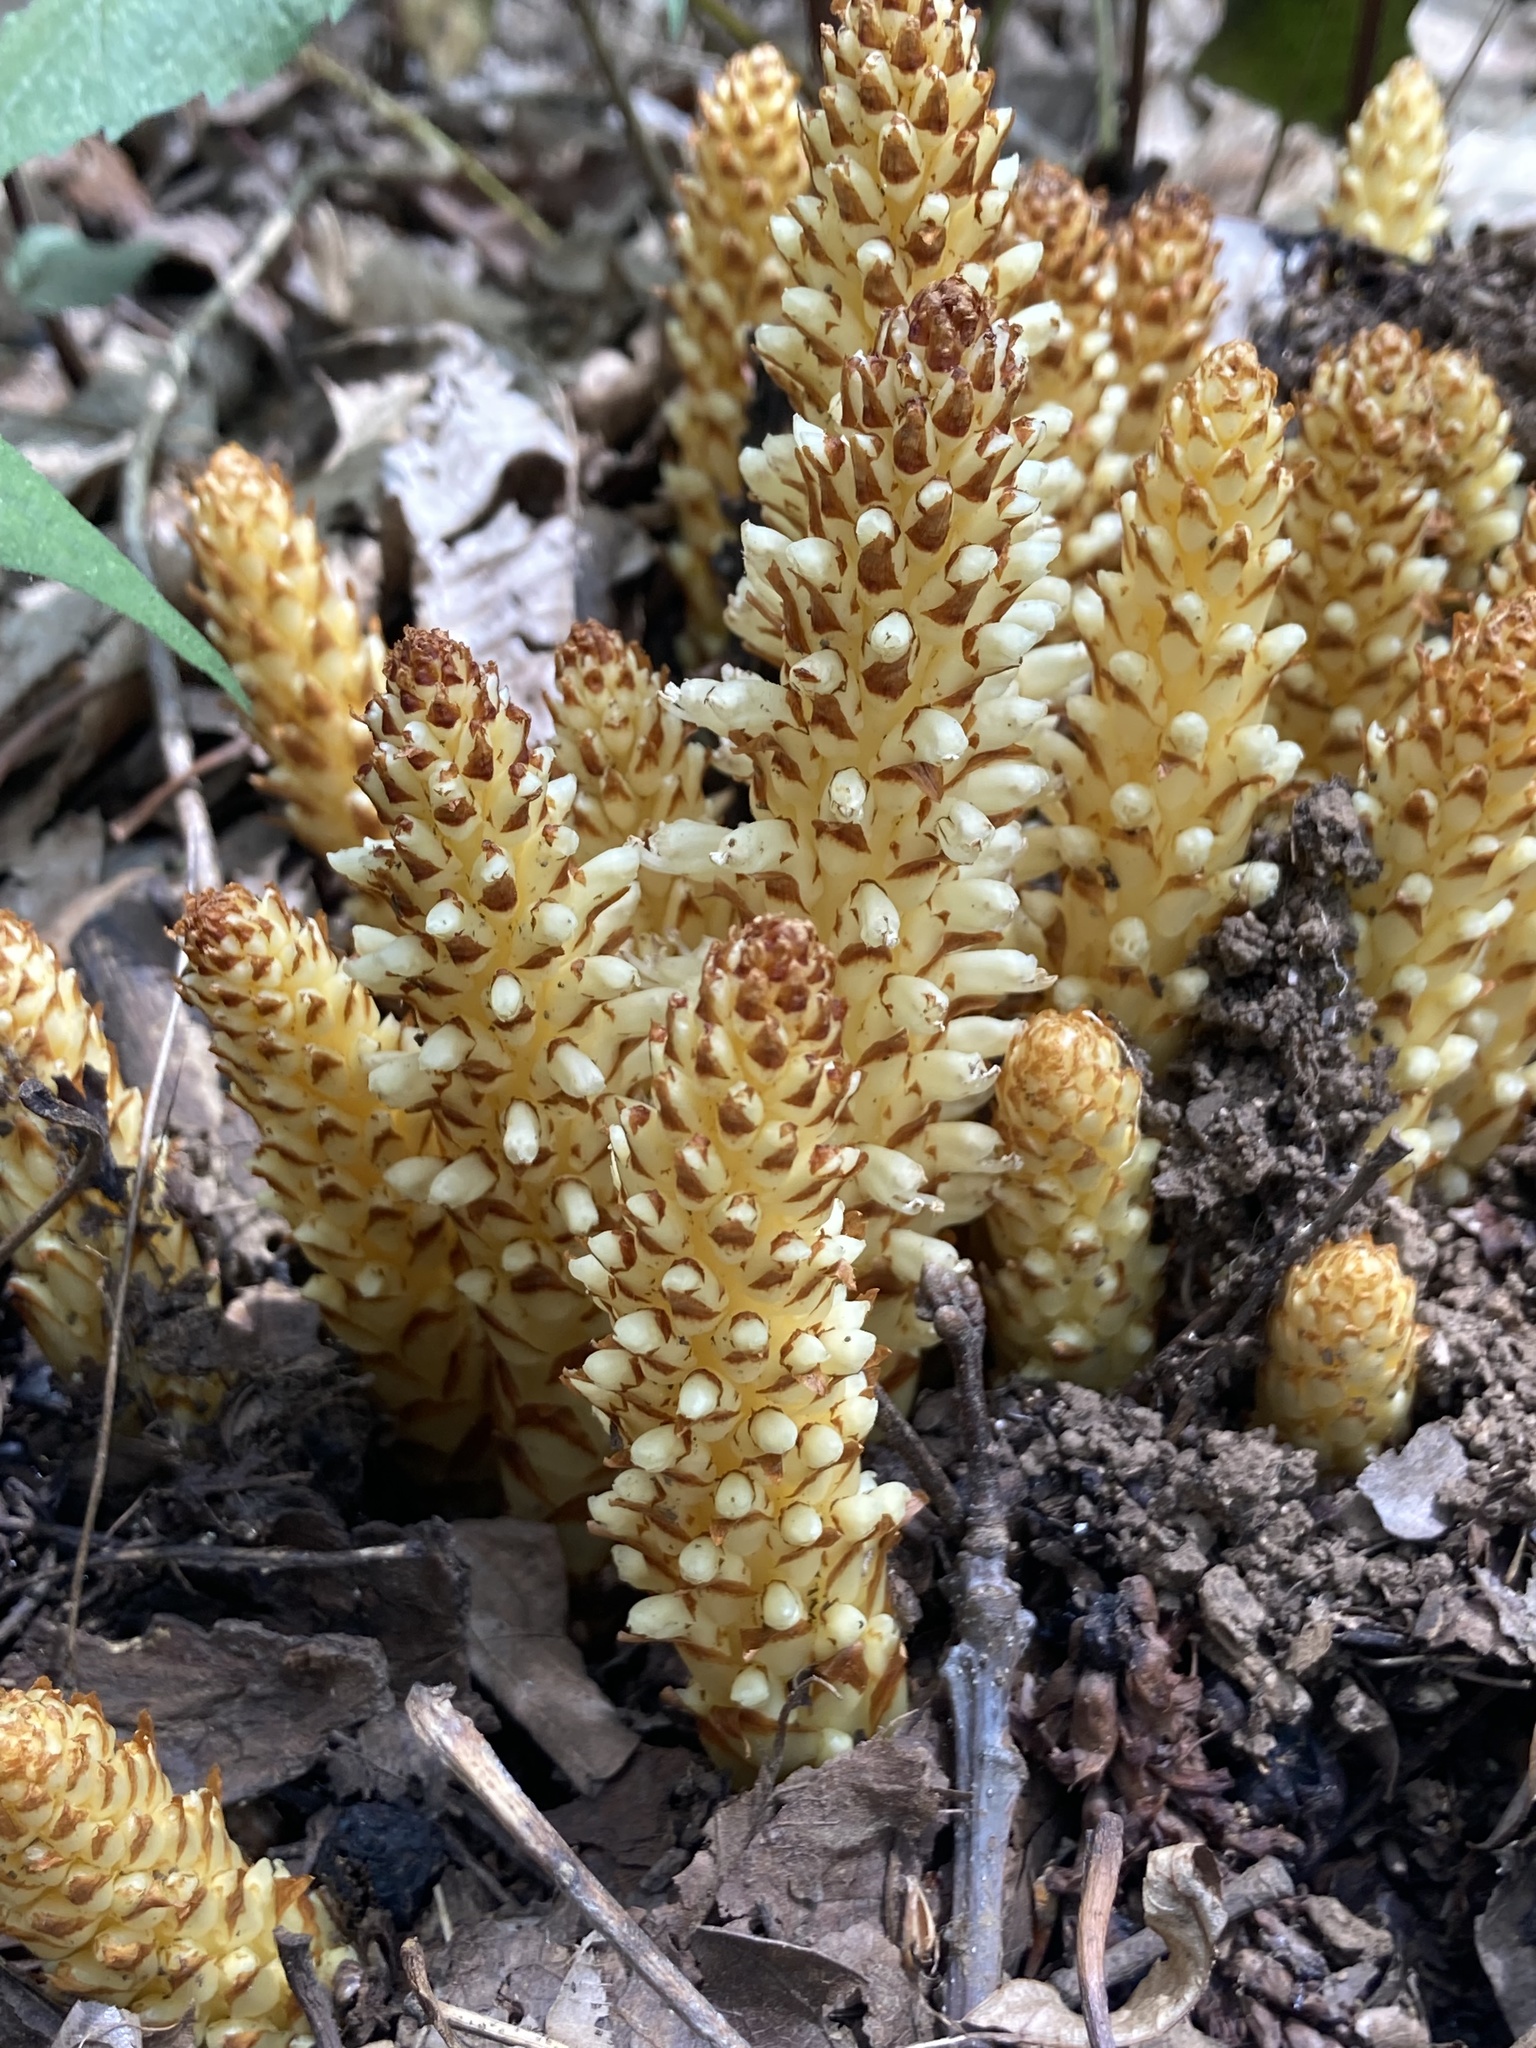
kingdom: Plantae
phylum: Tracheophyta
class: Magnoliopsida
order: Lamiales
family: Orobanchaceae
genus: Conopholis
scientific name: Conopholis americana
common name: American cancer-root
